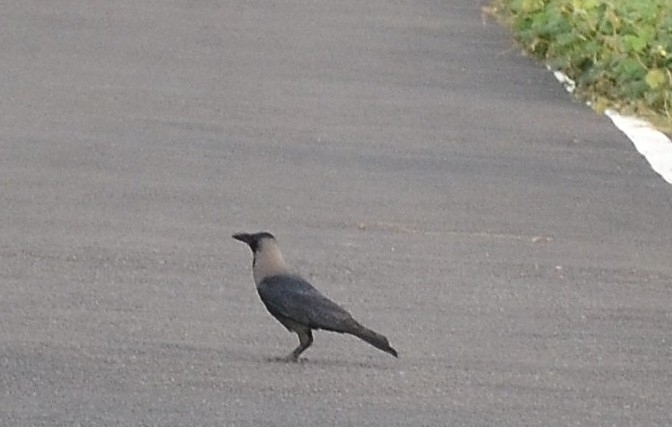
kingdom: Animalia
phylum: Chordata
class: Aves
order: Passeriformes
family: Corvidae
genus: Corvus
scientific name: Corvus splendens
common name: House crow
